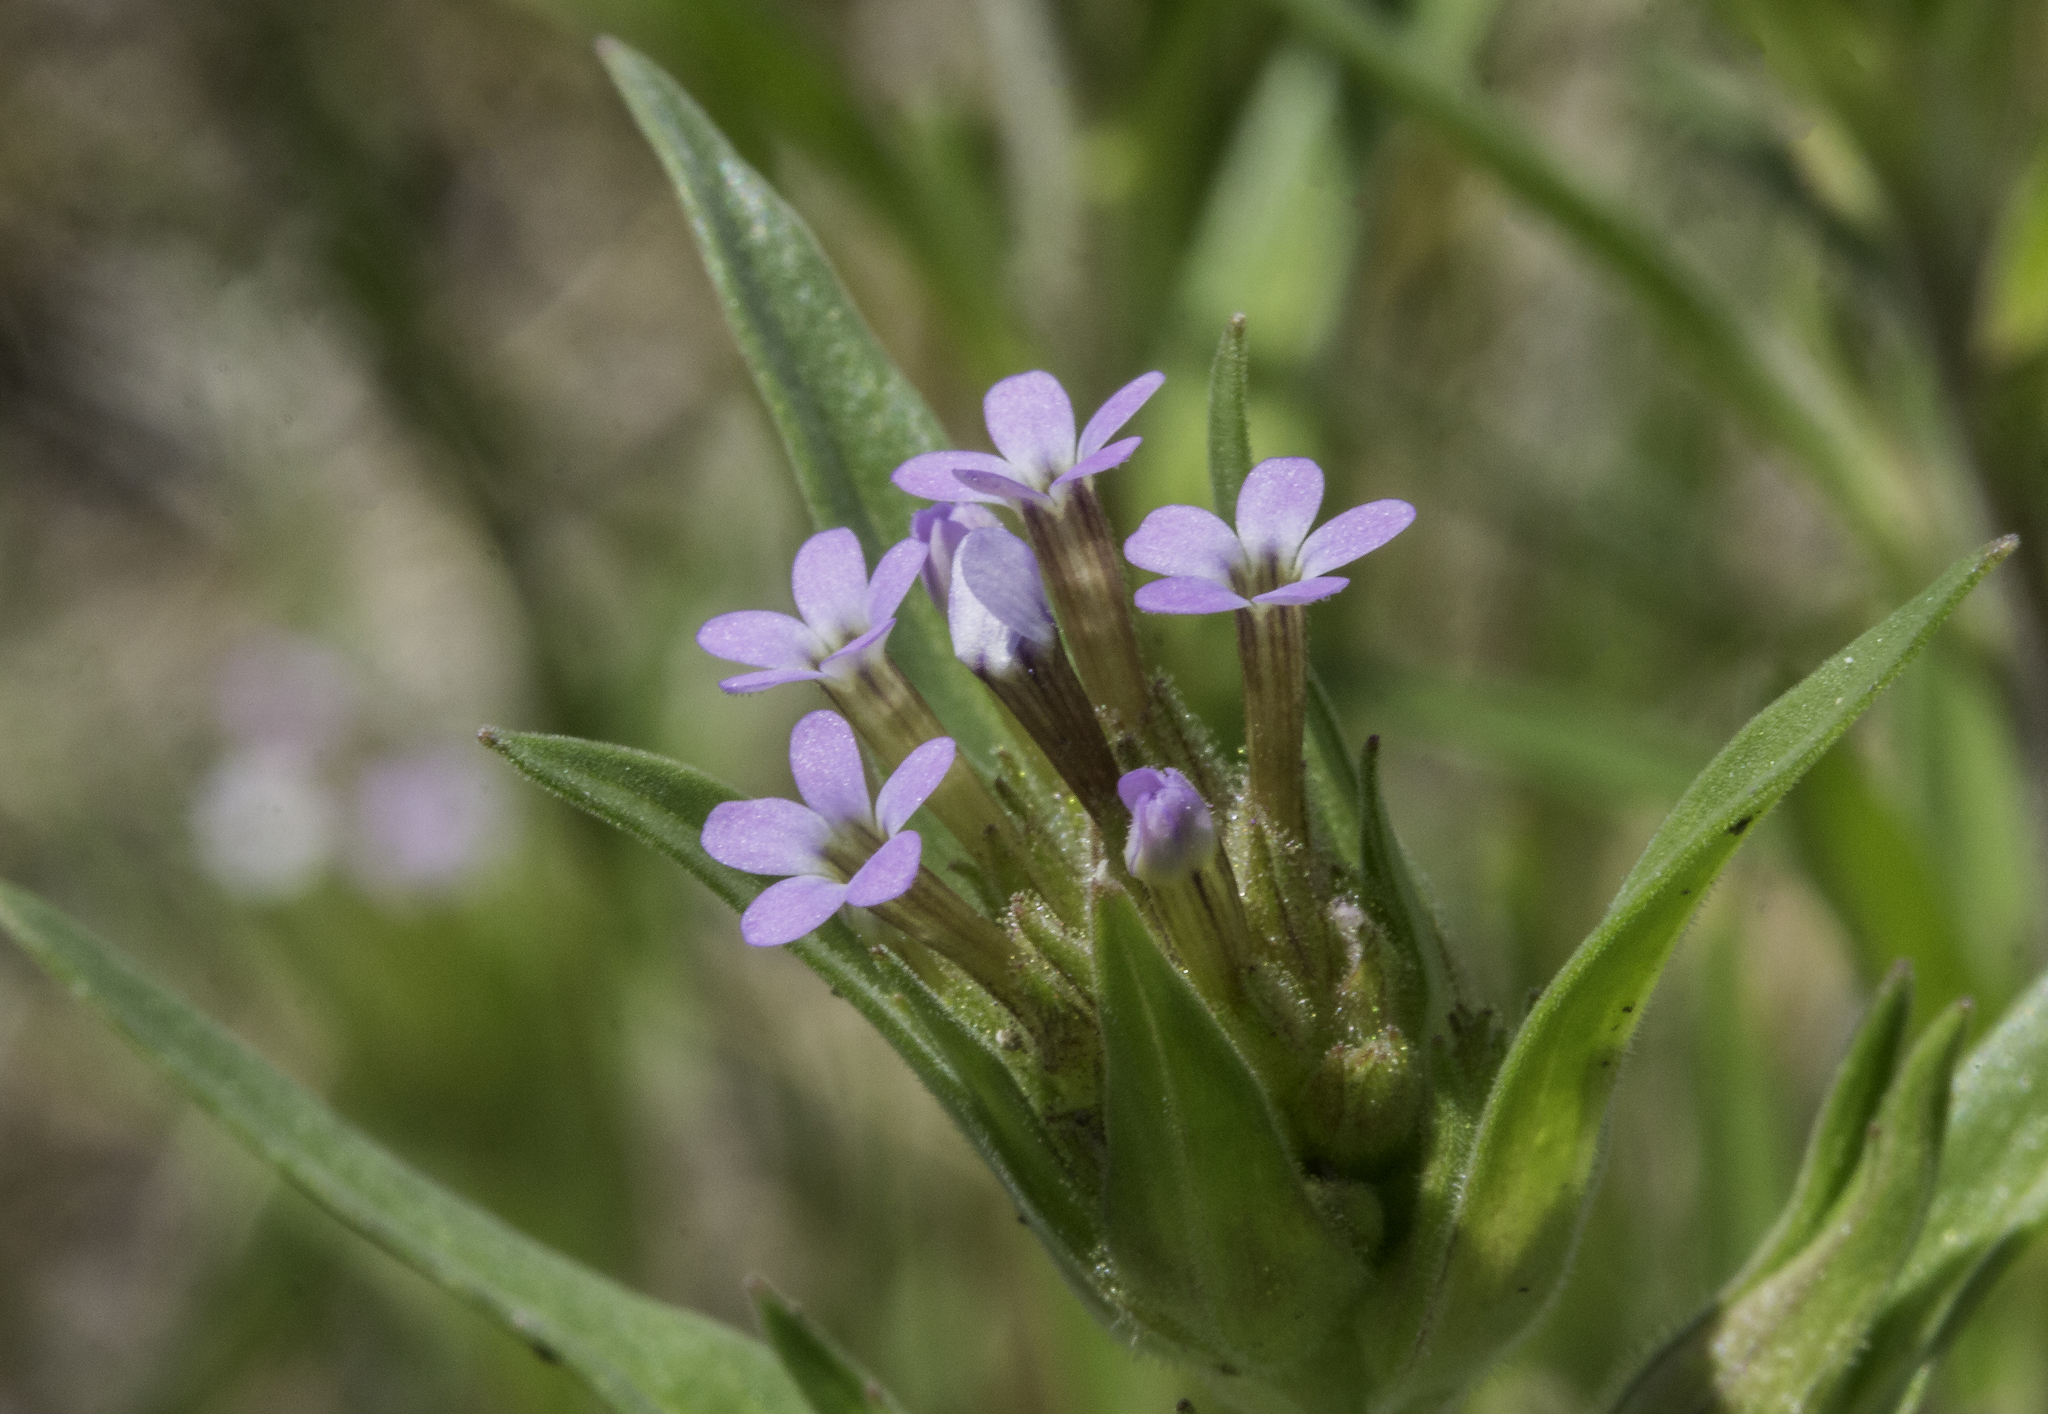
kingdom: Plantae
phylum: Tracheophyta
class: Magnoliopsida
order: Ericales
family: Polemoniaceae
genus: Collomia
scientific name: Collomia linearis
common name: Tiny trumpet
